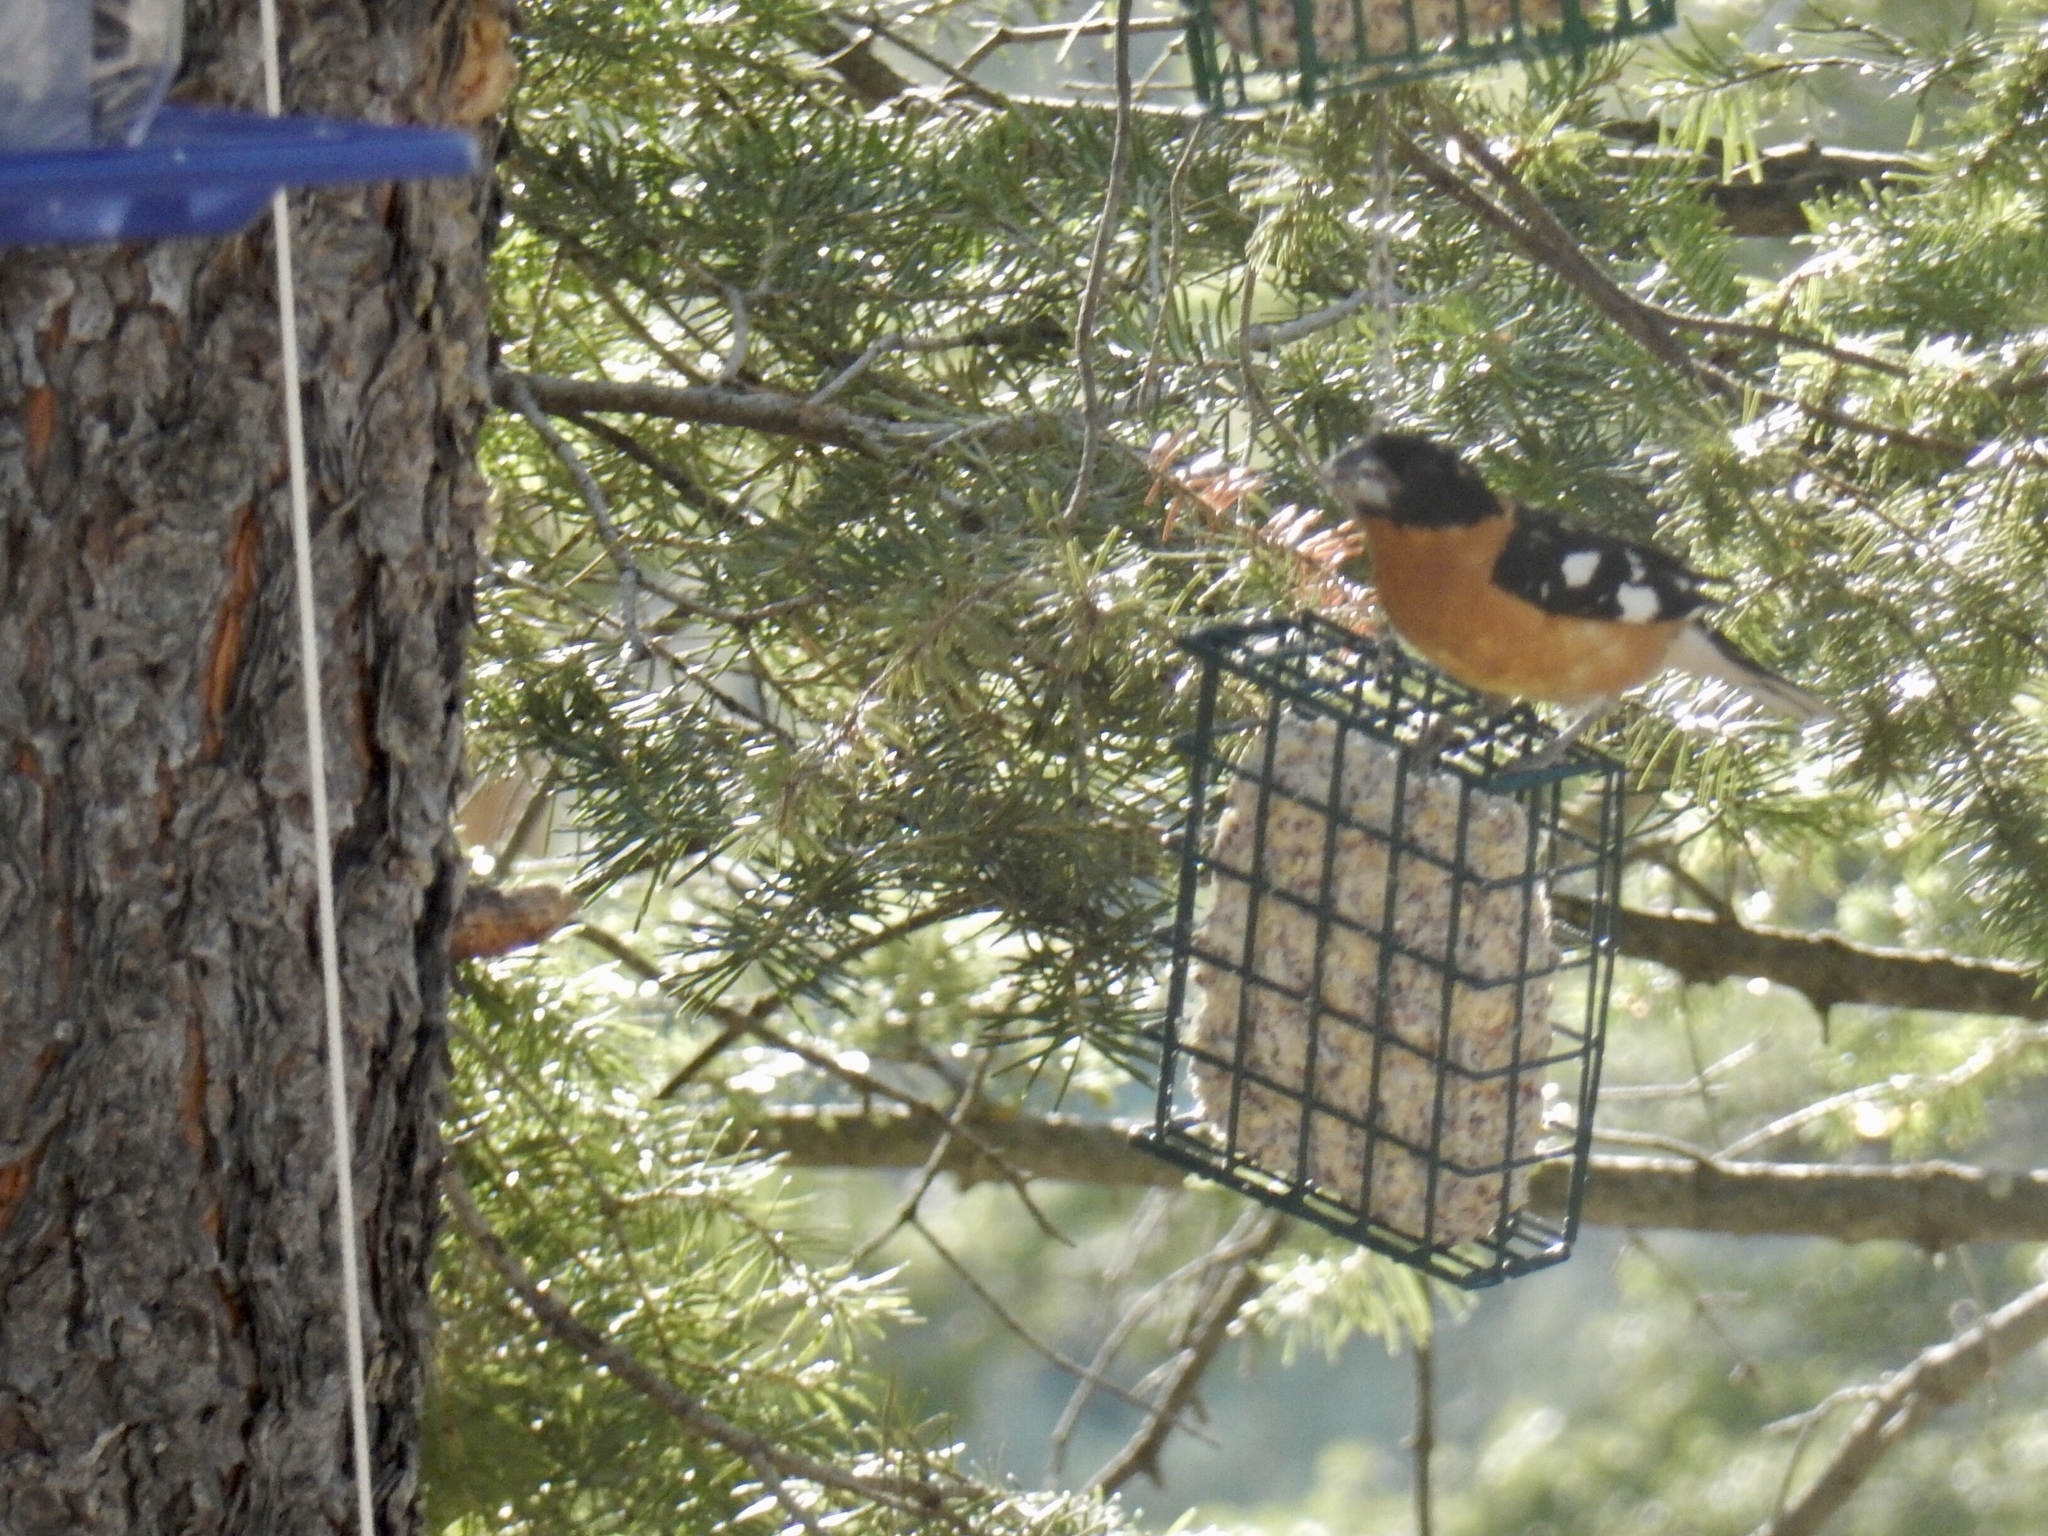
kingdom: Animalia
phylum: Chordata
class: Aves
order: Passeriformes
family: Cardinalidae
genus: Pheucticus
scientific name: Pheucticus melanocephalus
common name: Black-headed grosbeak
